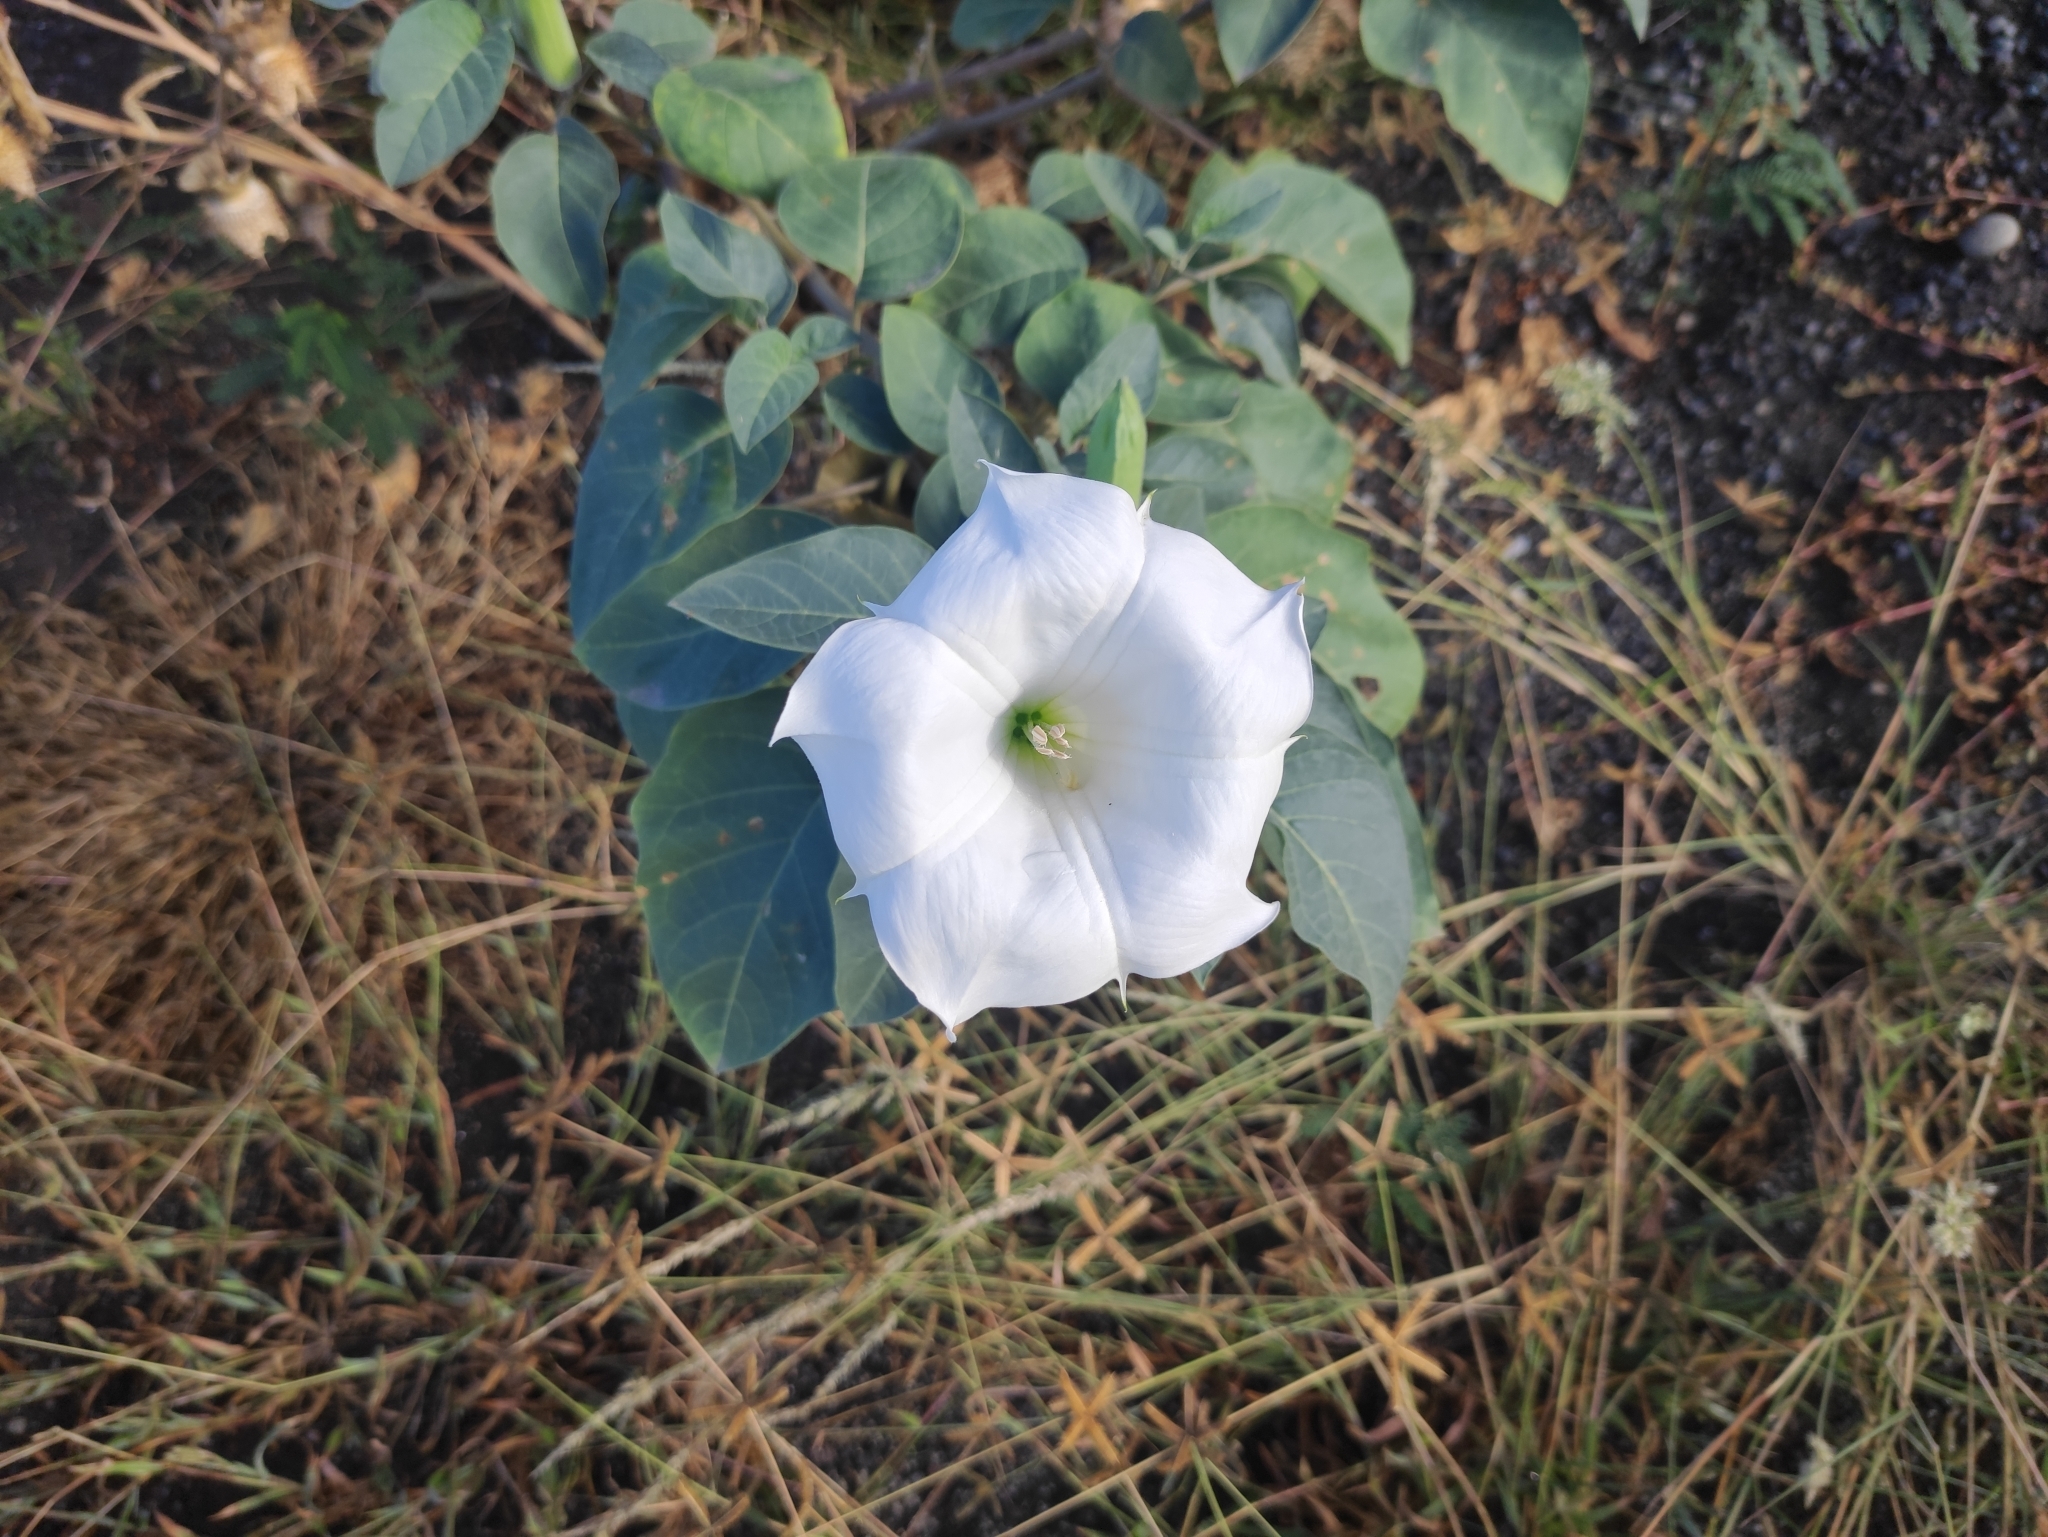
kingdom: Plantae
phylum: Tracheophyta
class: Magnoliopsida
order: Solanales
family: Solanaceae
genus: Datura
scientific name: Datura innoxia
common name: Downy thorn-apple
